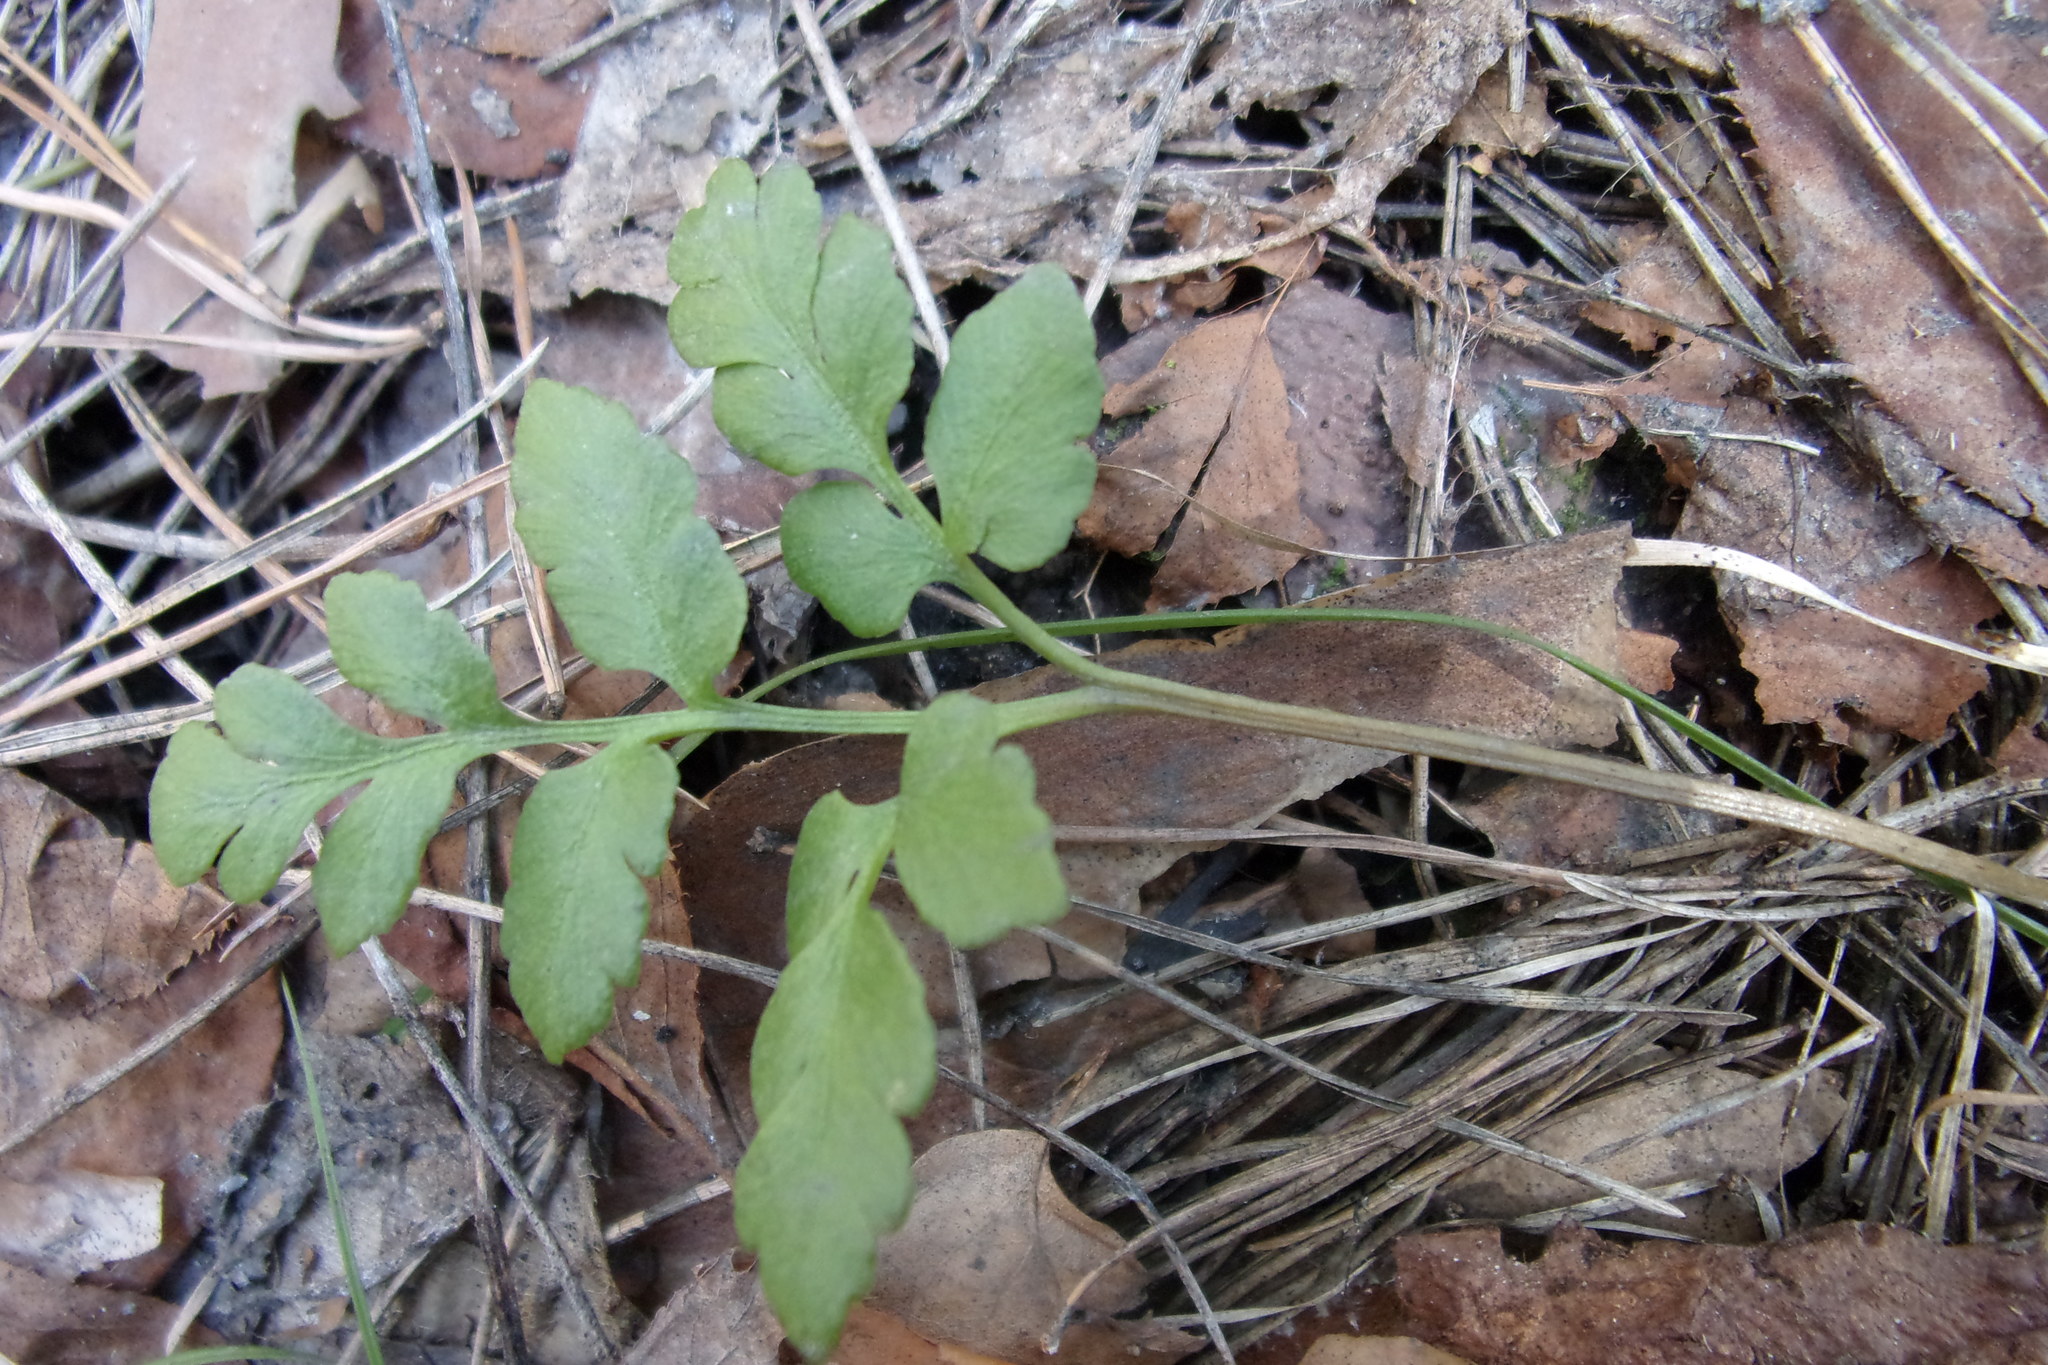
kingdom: Plantae
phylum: Tracheophyta
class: Polypodiopsida
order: Ophioglossales
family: Ophioglossaceae
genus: Sceptridium
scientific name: Sceptridium multifidum
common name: Leathery grape fern
